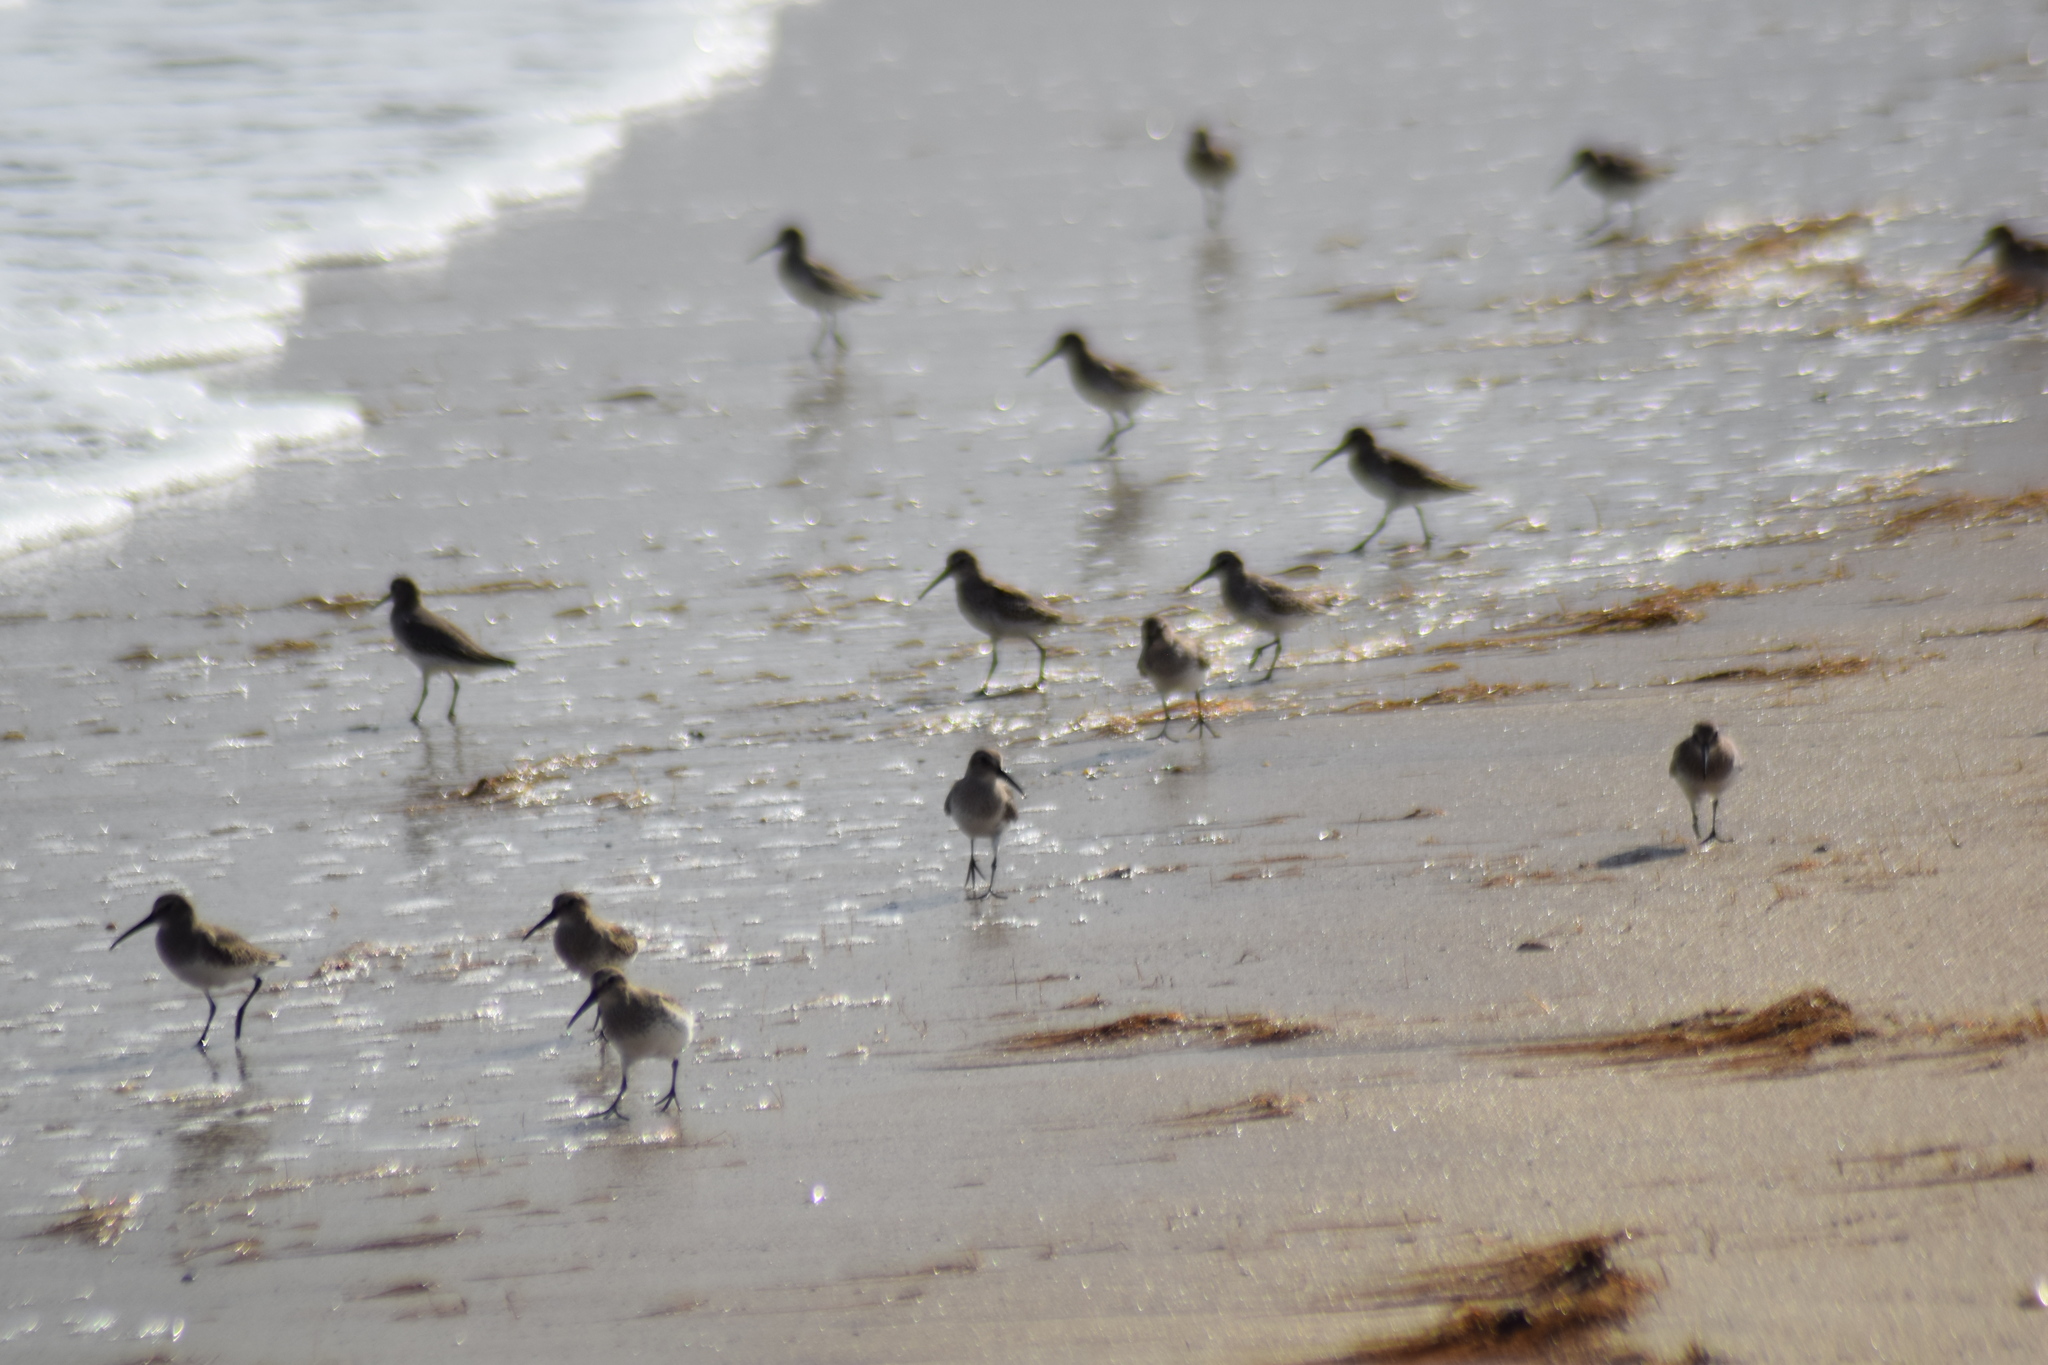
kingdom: Animalia
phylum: Chordata
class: Aves
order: Charadriiformes
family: Scolopacidae
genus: Calidris
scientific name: Calidris alpina
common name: Dunlin
